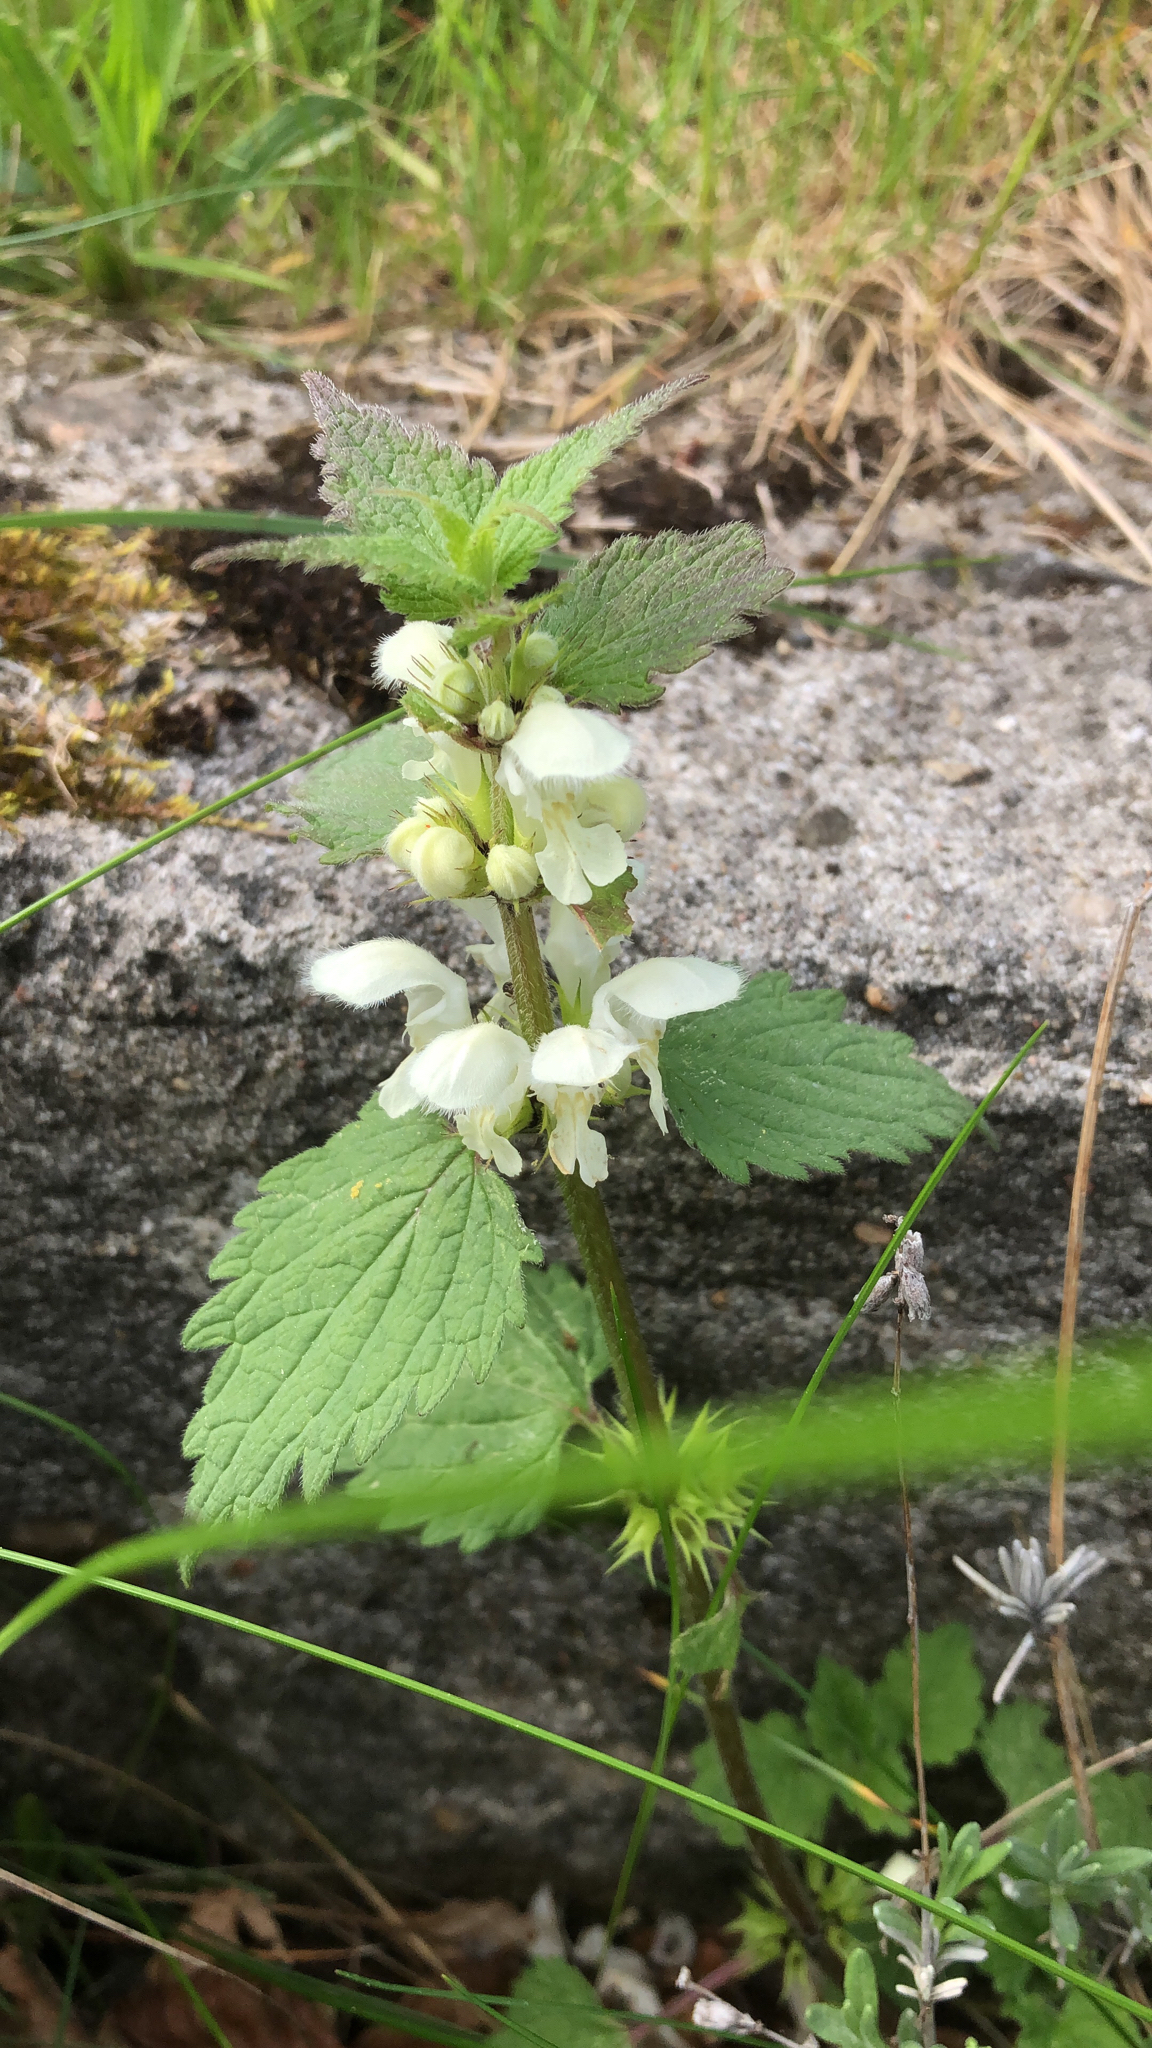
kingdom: Plantae
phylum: Tracheophyta
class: Magnoliopsida
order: Lamiales
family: Lamiaceae
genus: Lamium
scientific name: Lamium album
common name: White dead-nettle
